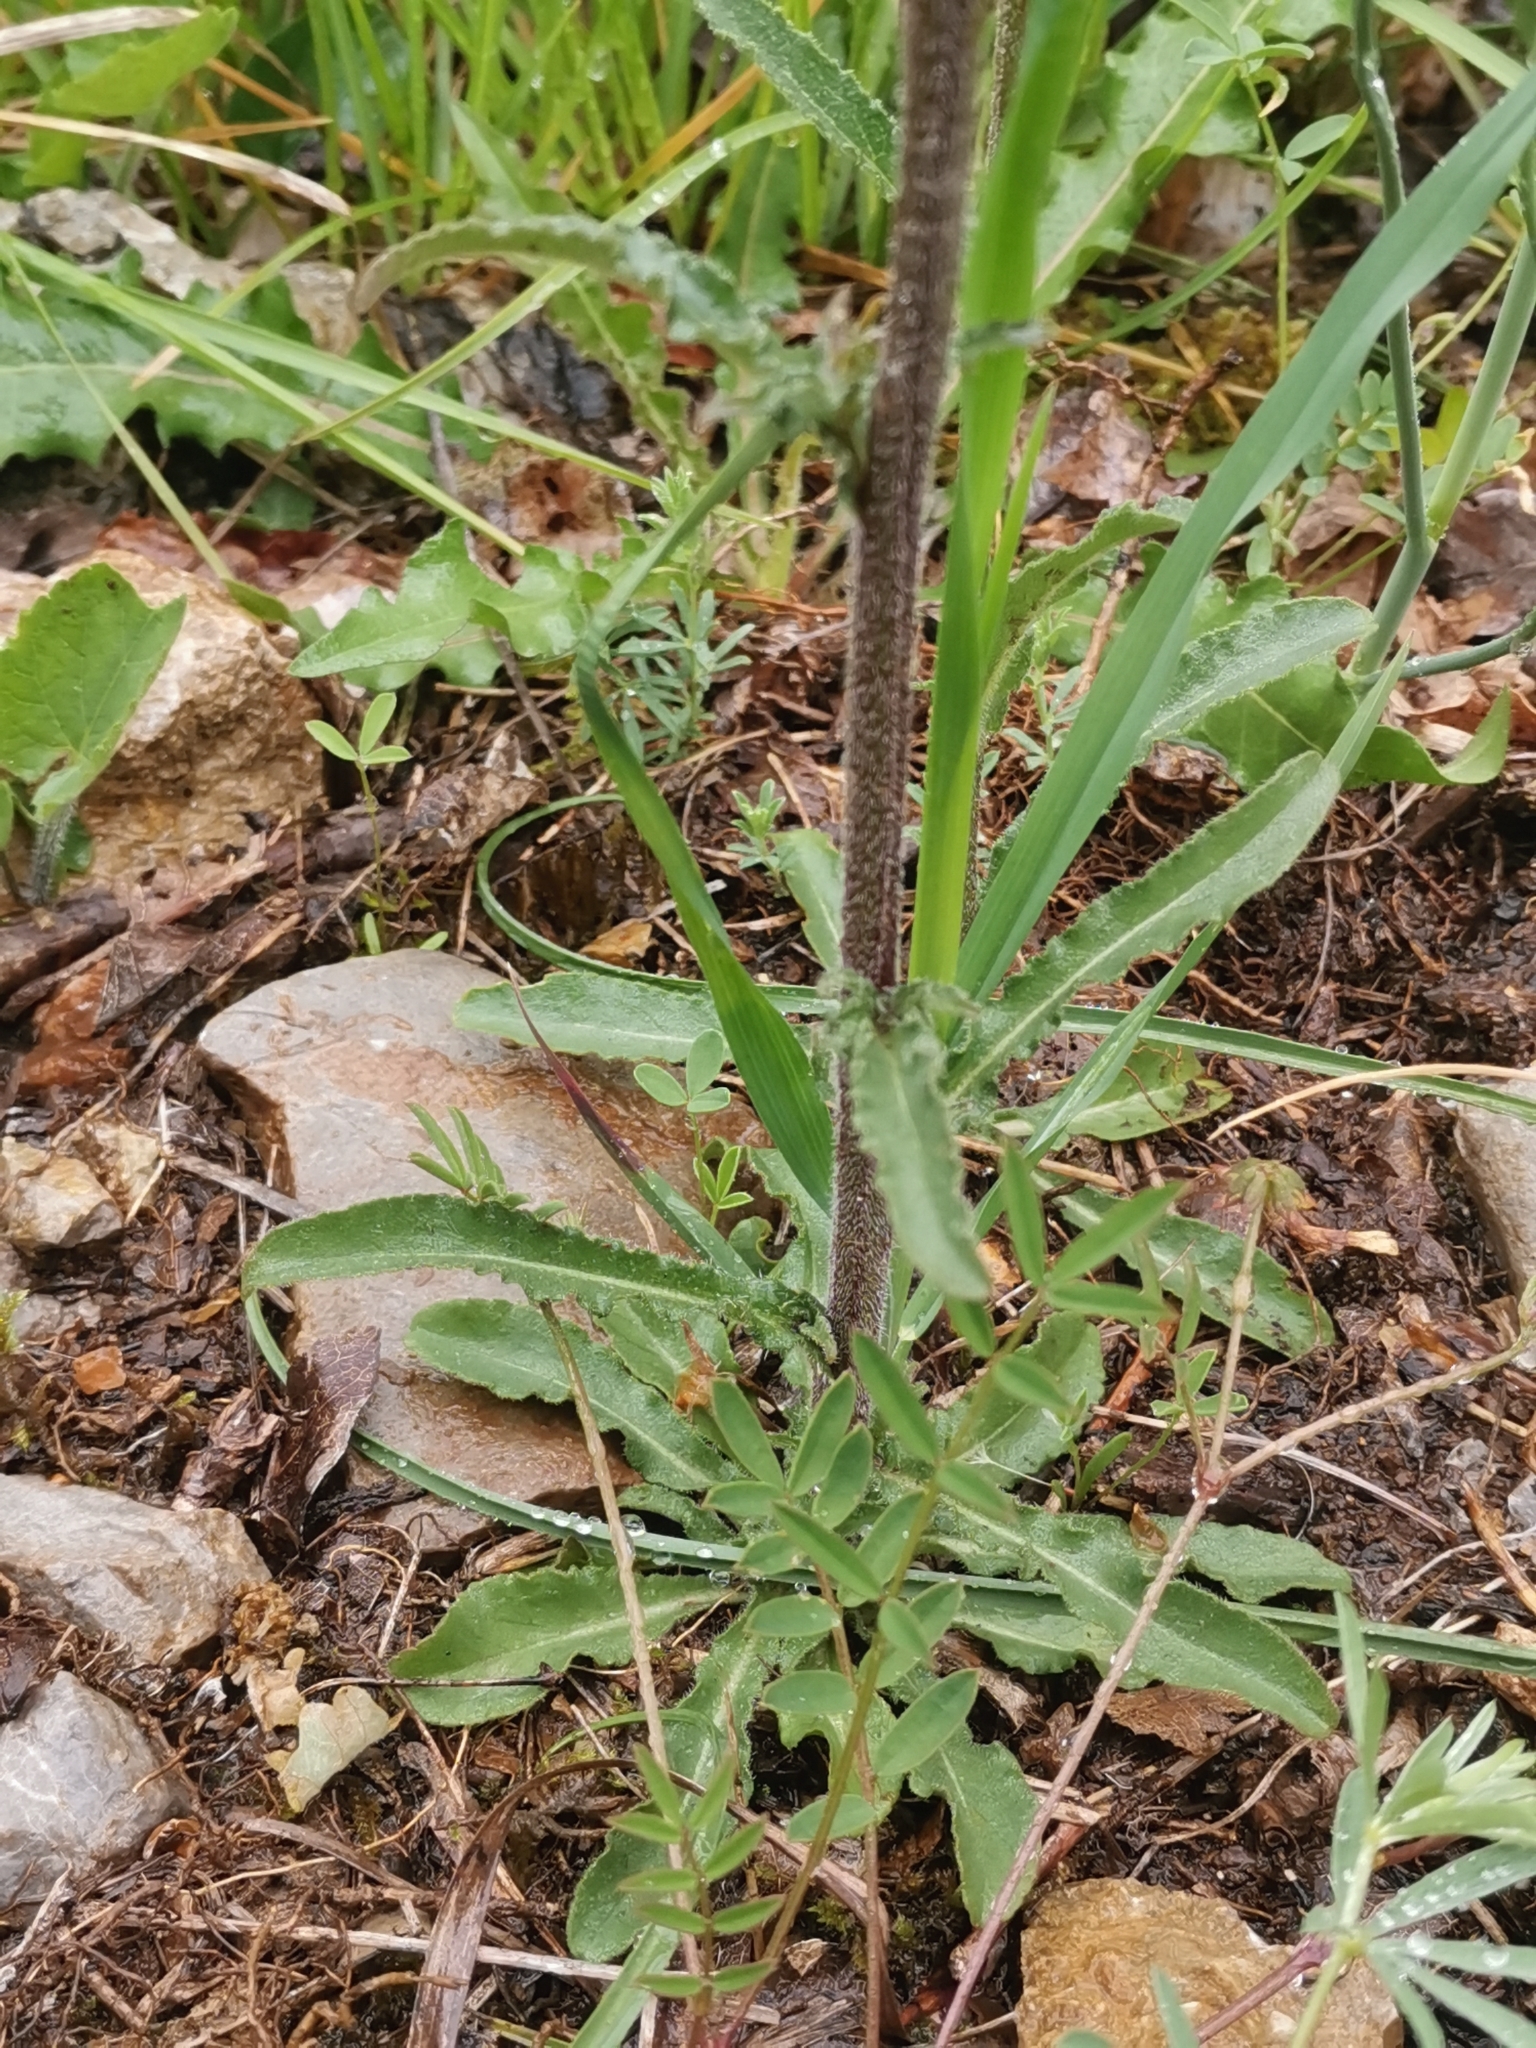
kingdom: Plantae
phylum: Tracheophyta
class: Magnoliopsida
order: Asterales
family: Campanulaceae
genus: Campanula
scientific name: Campanula sibirica
